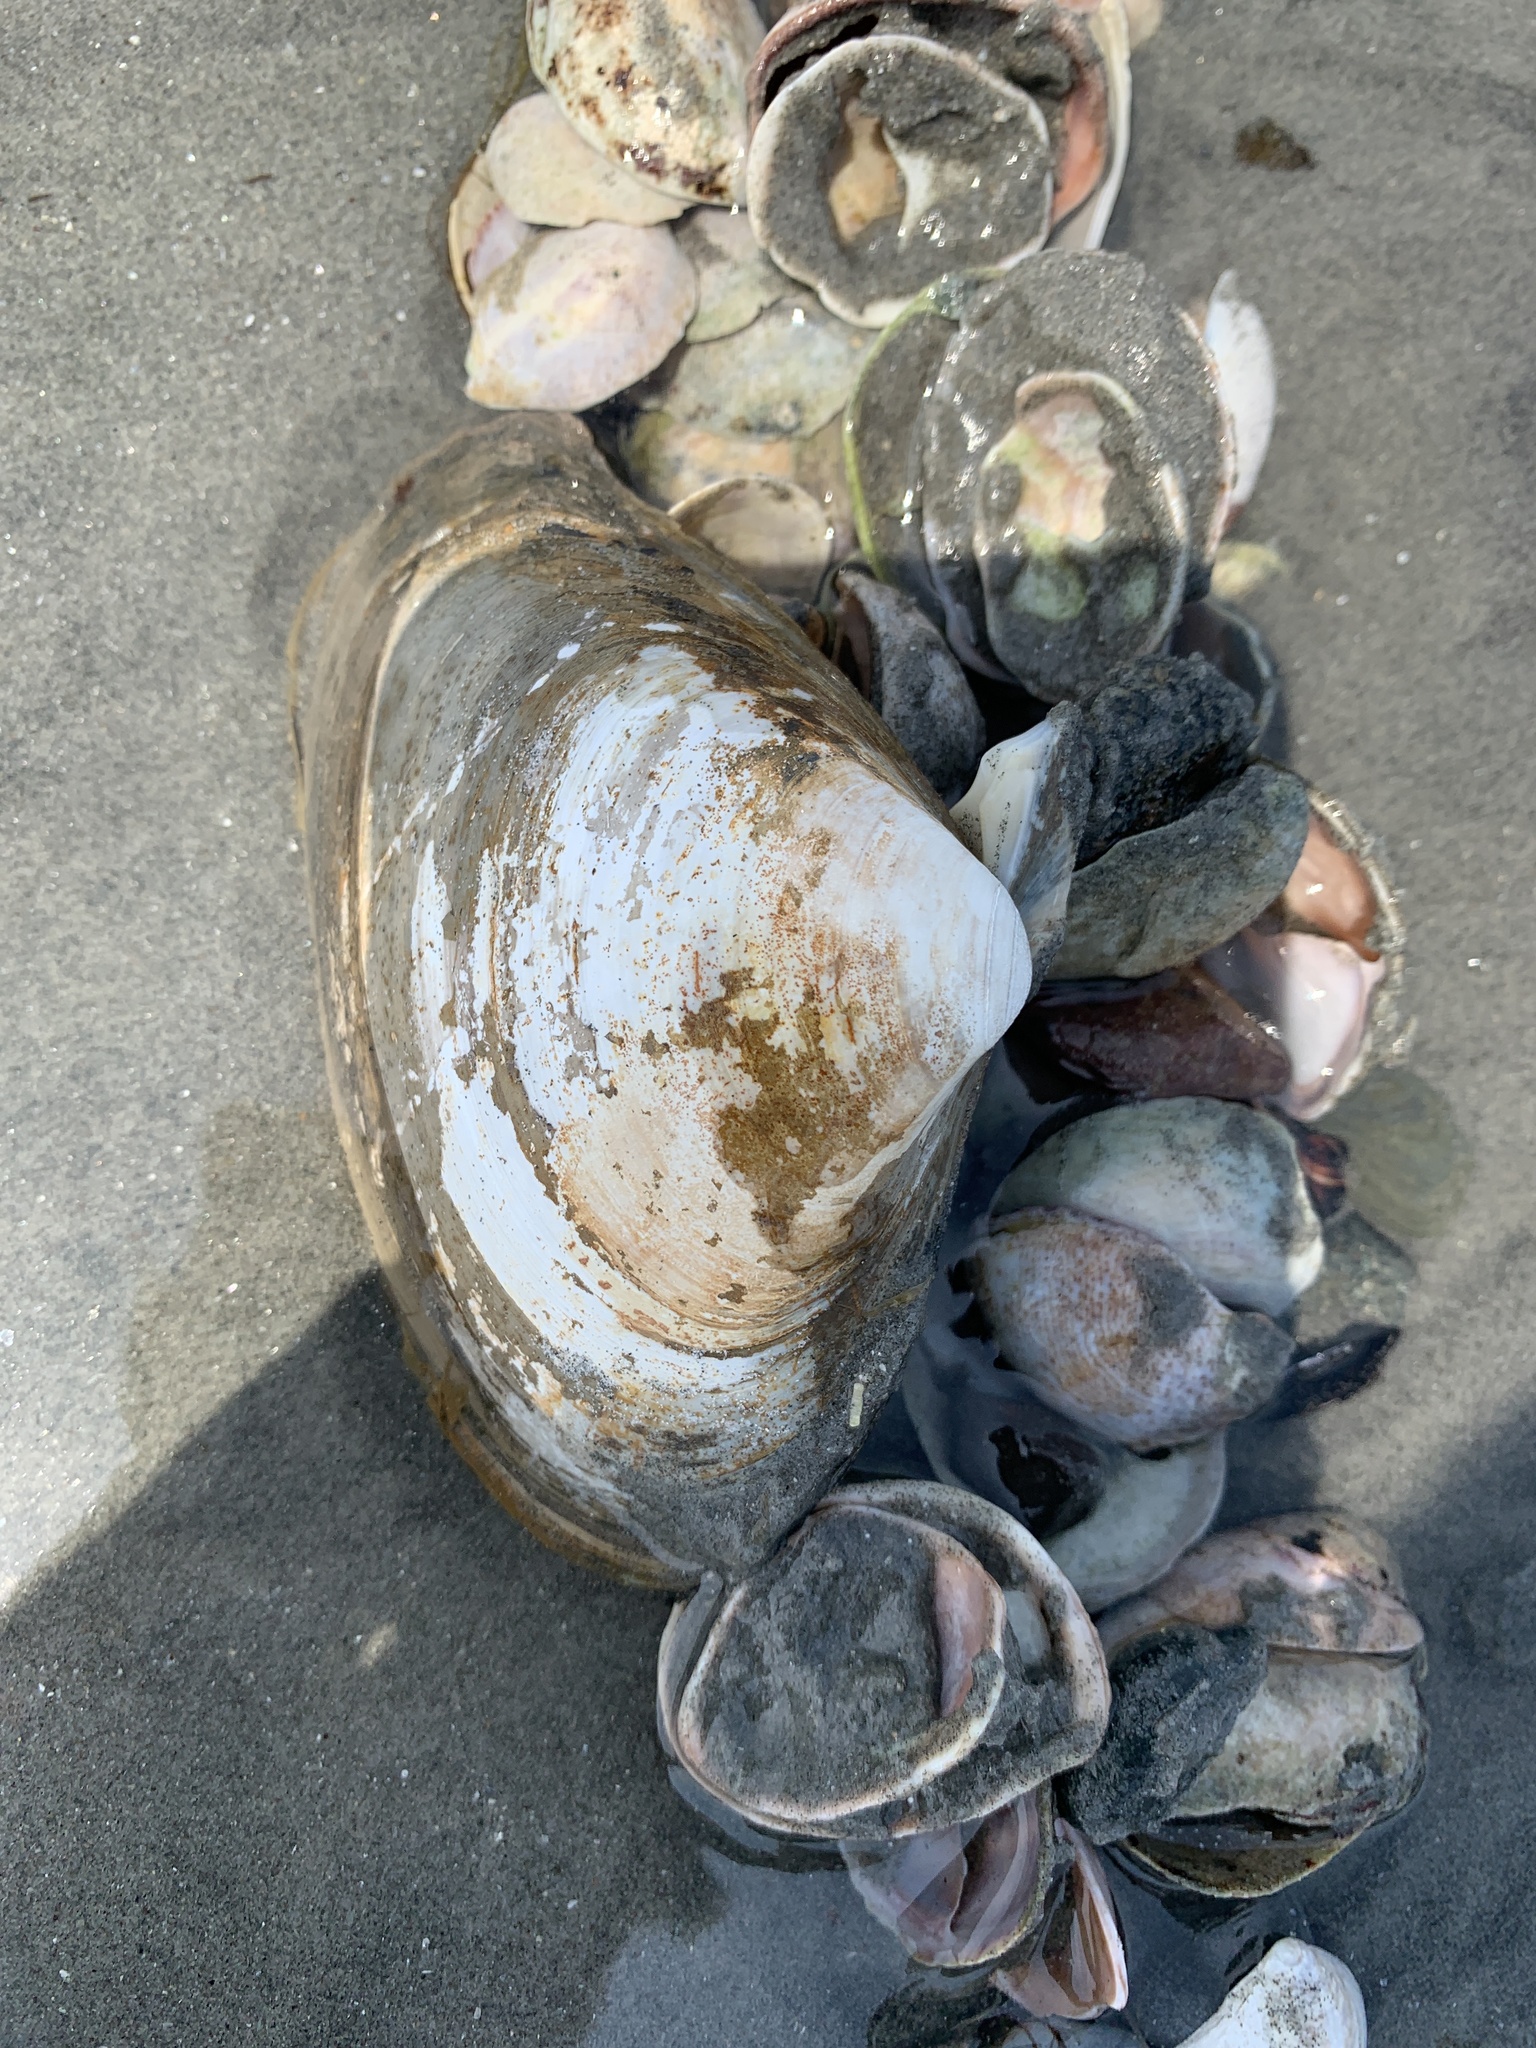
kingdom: Animalia
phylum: Mollusca
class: Bivalvia
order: Venerida
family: Mactridae
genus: Spisula
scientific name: Spisula solidissima
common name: Atlantic surf clam
